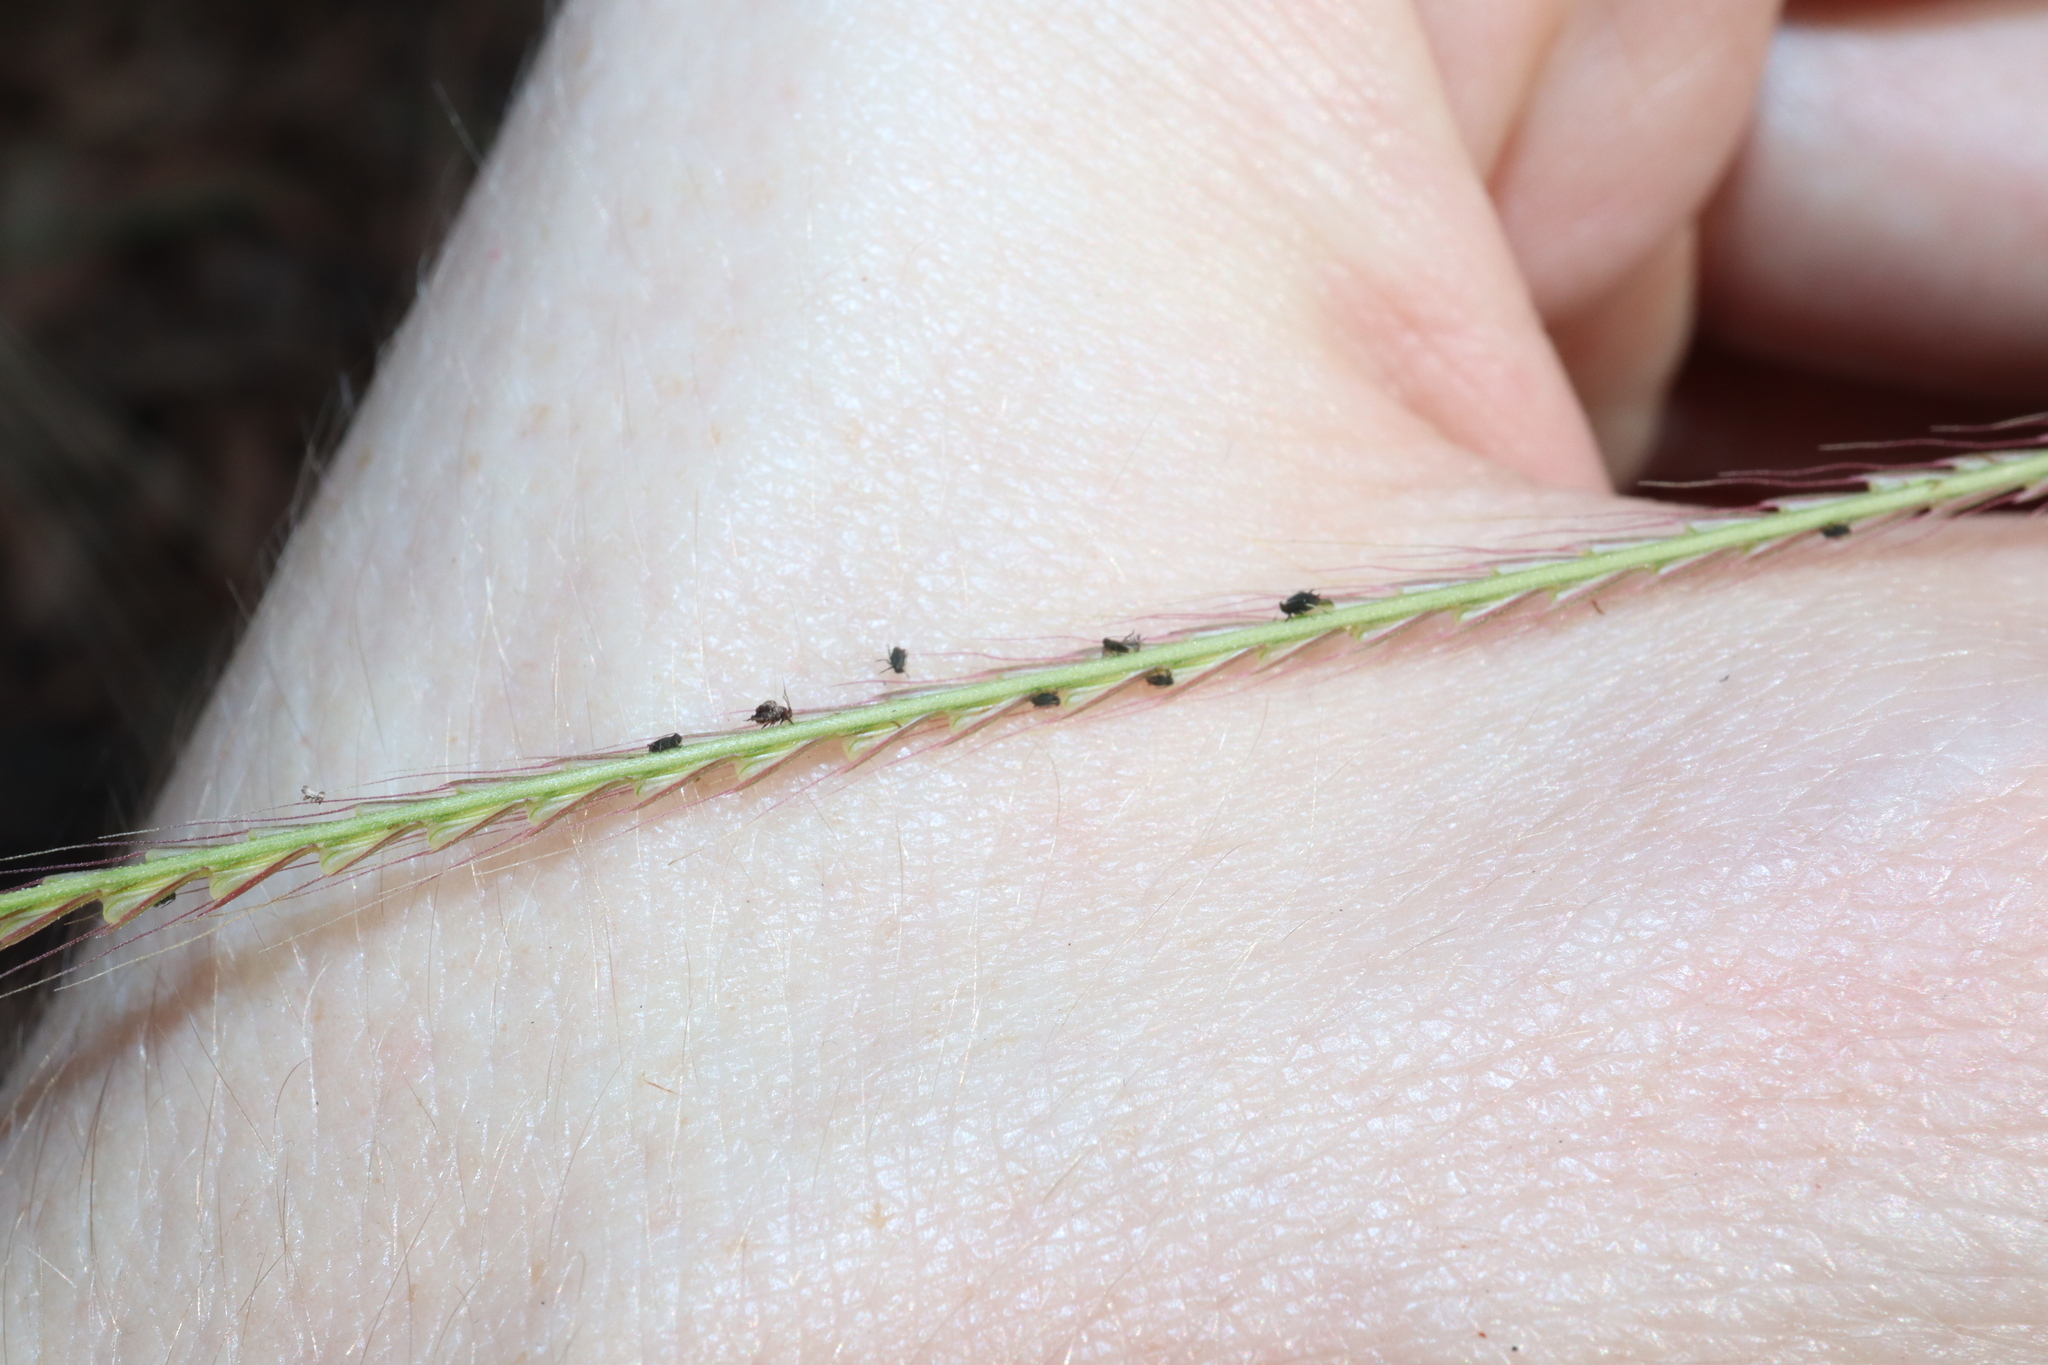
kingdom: Plantae
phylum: Tracheophyta
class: Liliopsida
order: Poales
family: Poaceae
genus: Chloris
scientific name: Chloris truncata
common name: Windmill-grass
